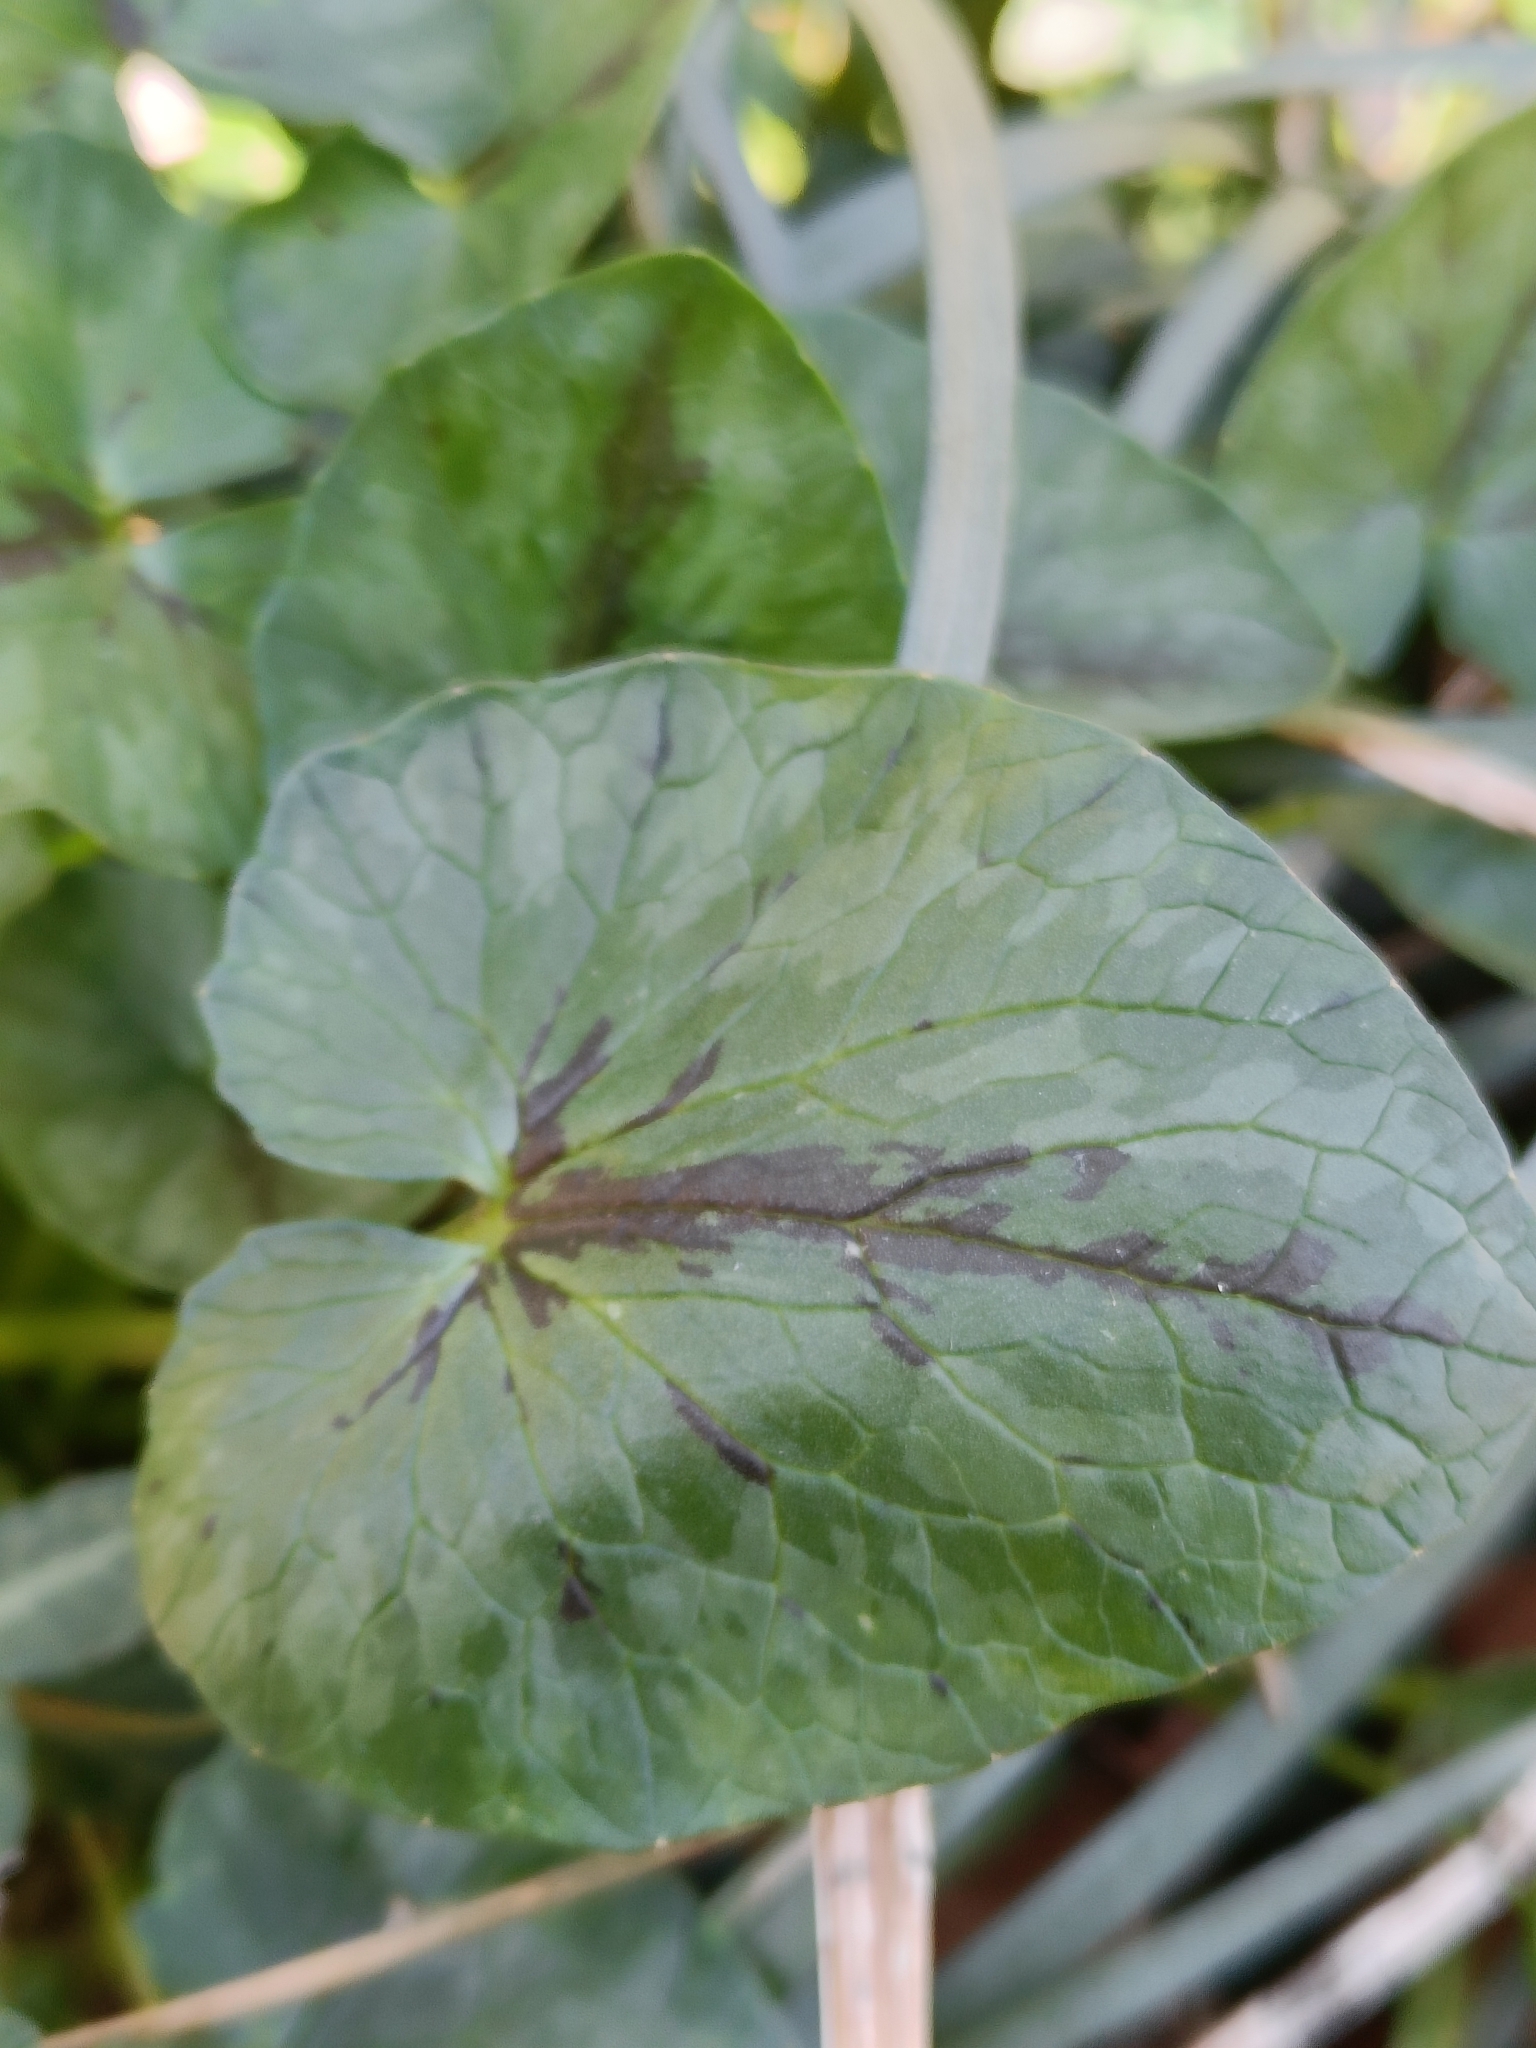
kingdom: Plantae
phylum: Tracheophyta
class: Magnoliopsida
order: Ranunculales
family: Ranunculaceae
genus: Ficaria
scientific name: Ficaria verna
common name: Lesser celandine
